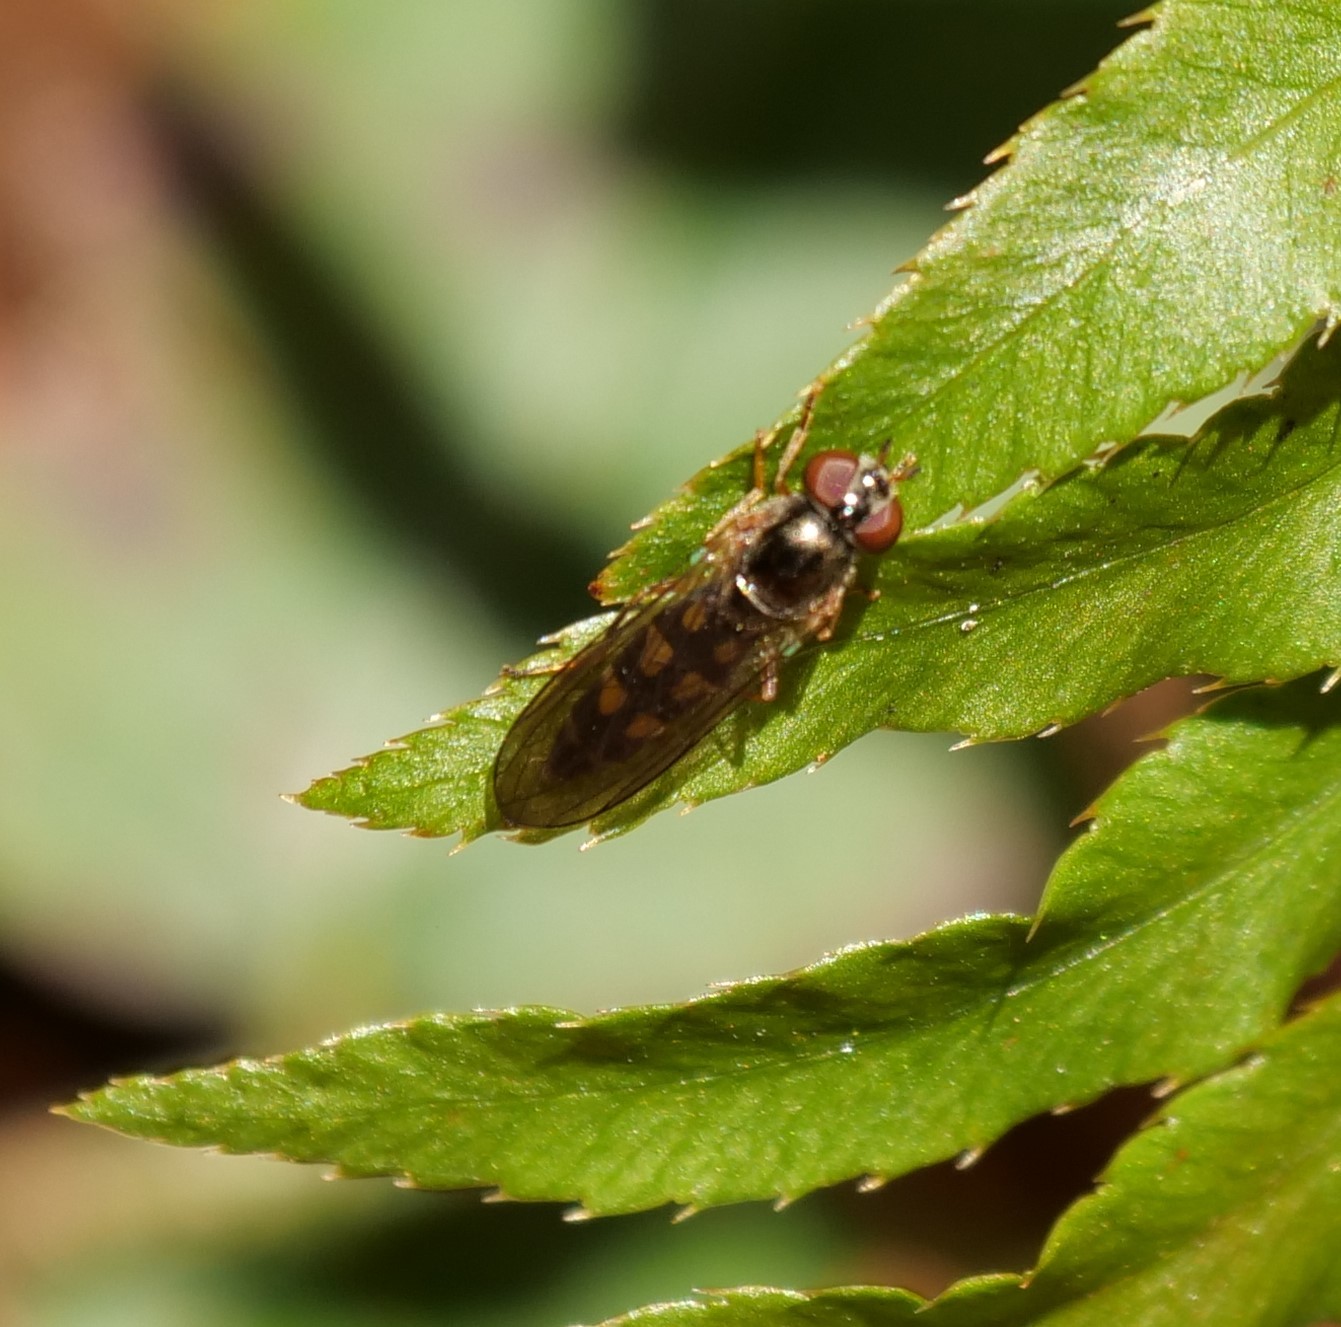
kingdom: Animalia
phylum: Arthropoda
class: Insecta
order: Diptera
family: Syrphidae
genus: Melanostoma
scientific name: Melanostoma mellina
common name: Hover fly
